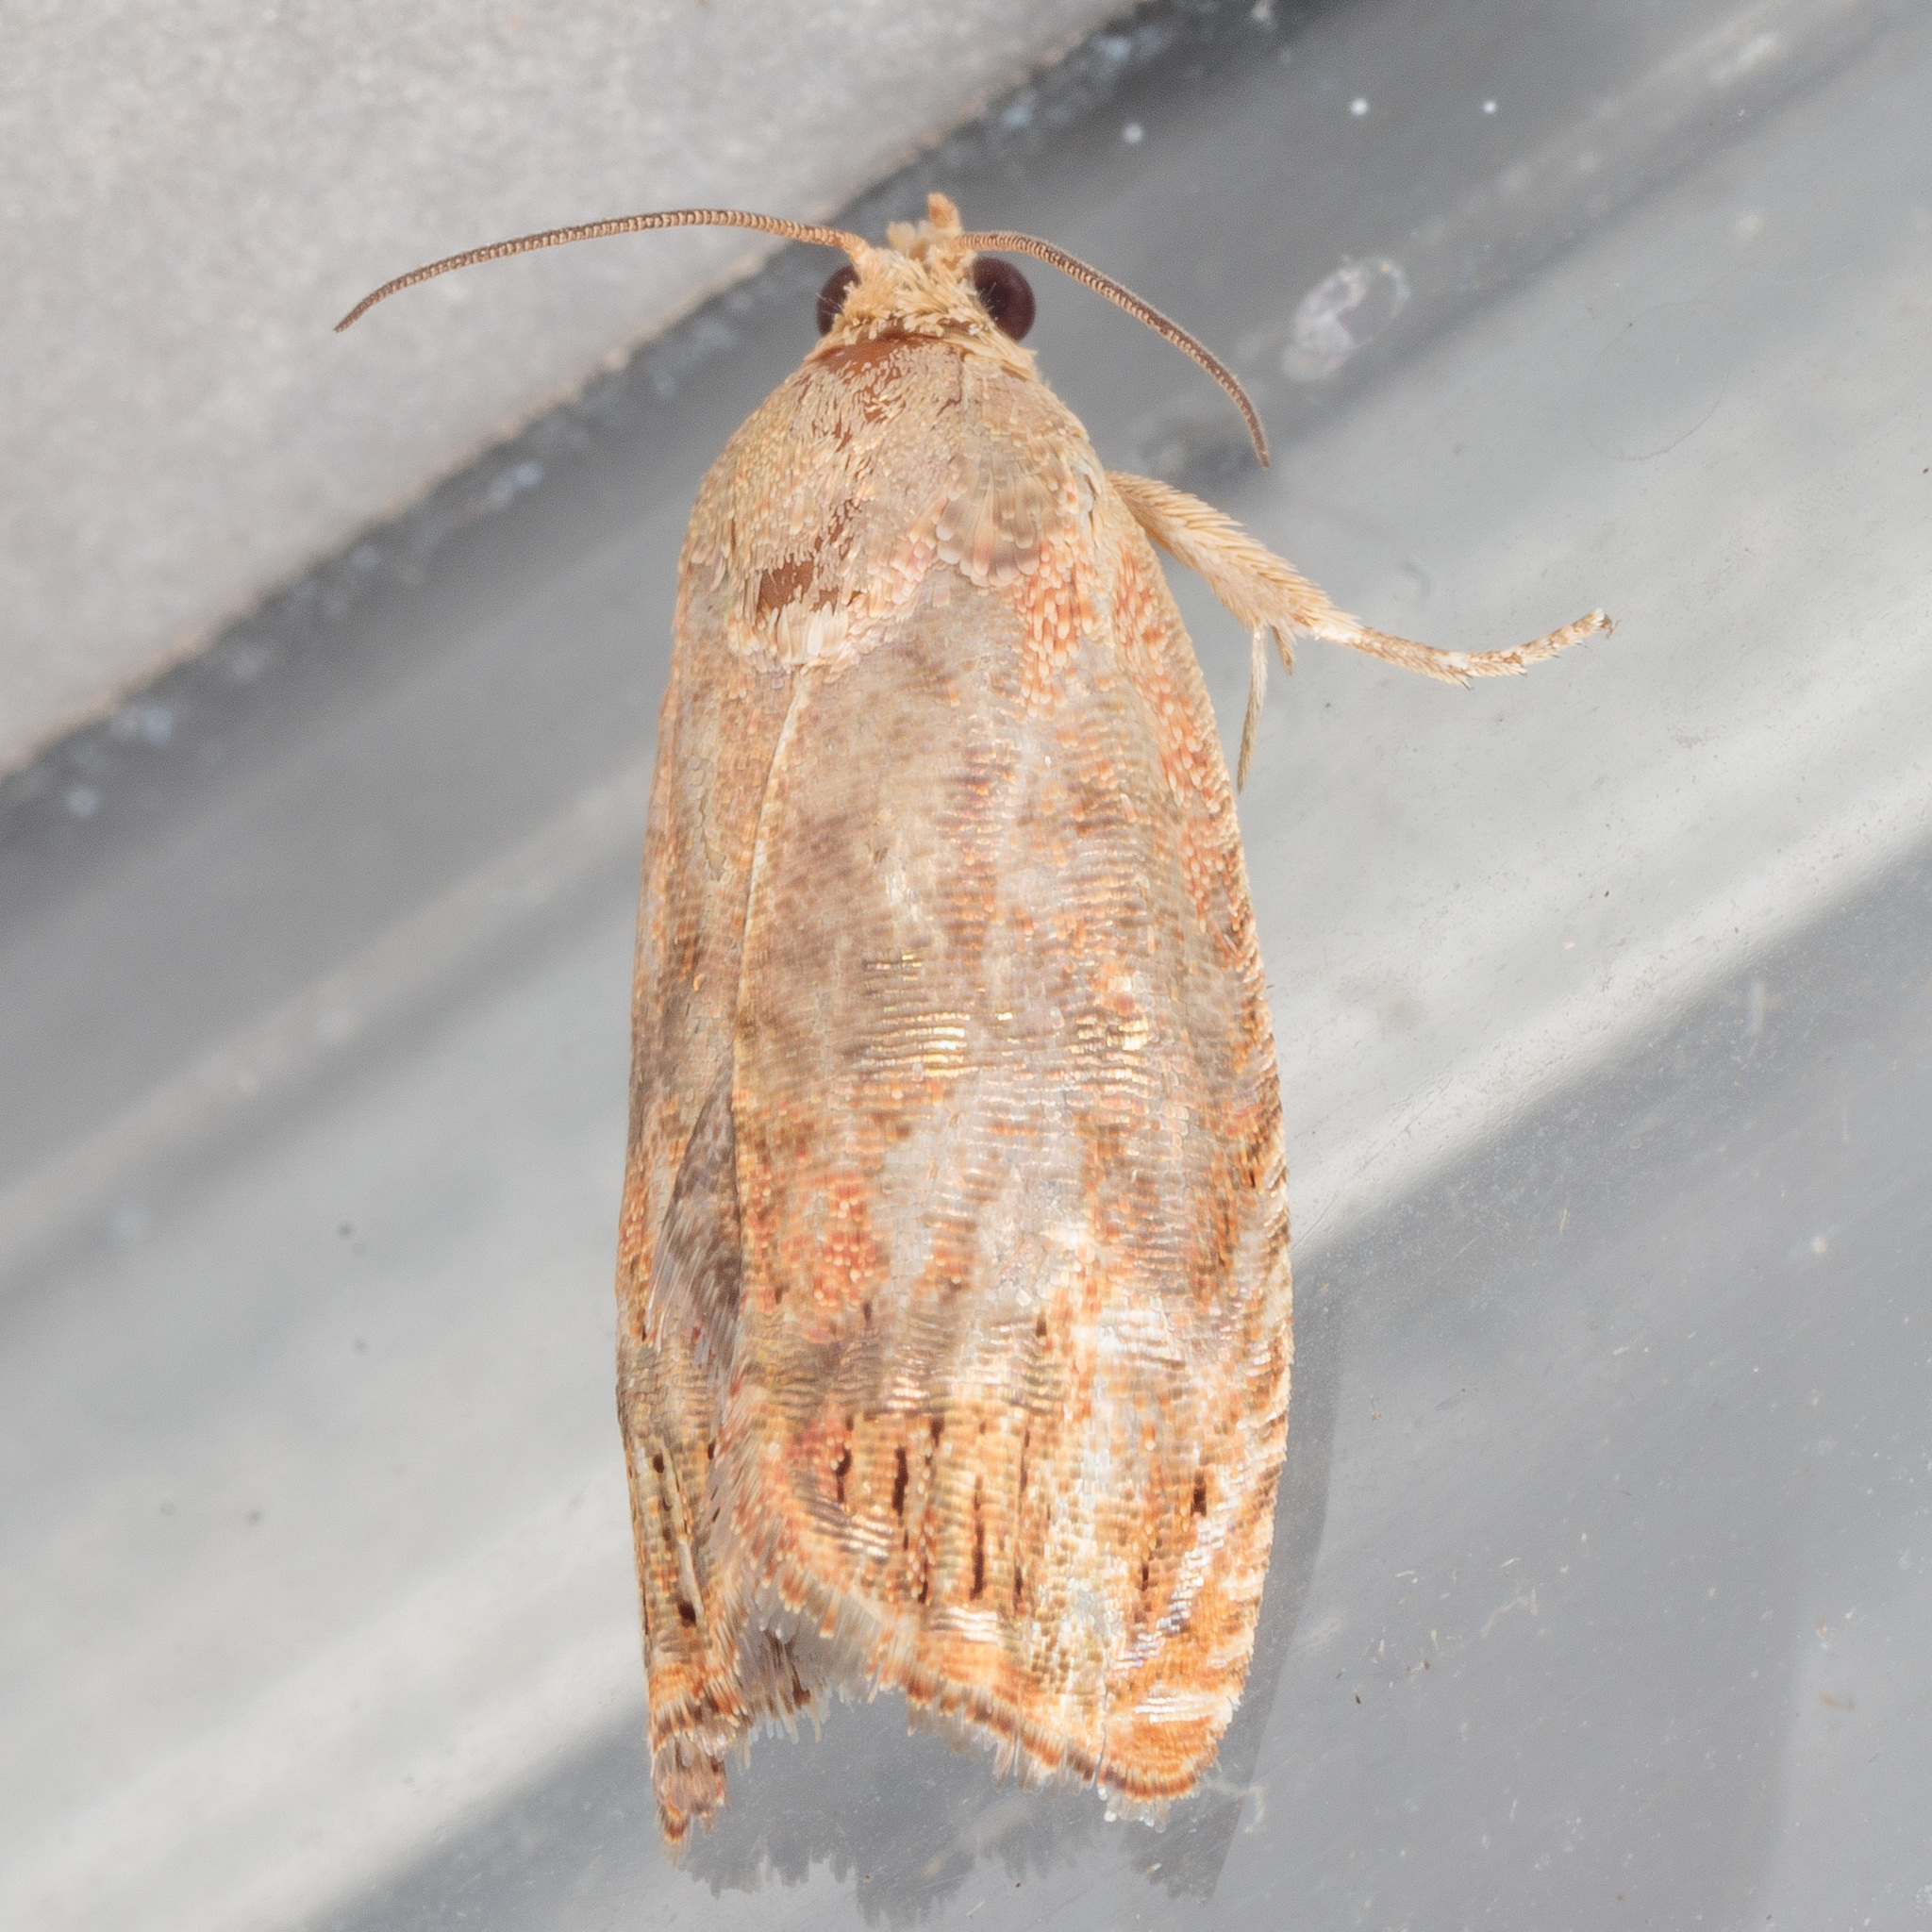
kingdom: Animalia
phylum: Arthropoda
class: Insecta
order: Lepidoptera
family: Tortricidae
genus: Cydia
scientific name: Cydia latiferreana
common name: Filbertworm moth
